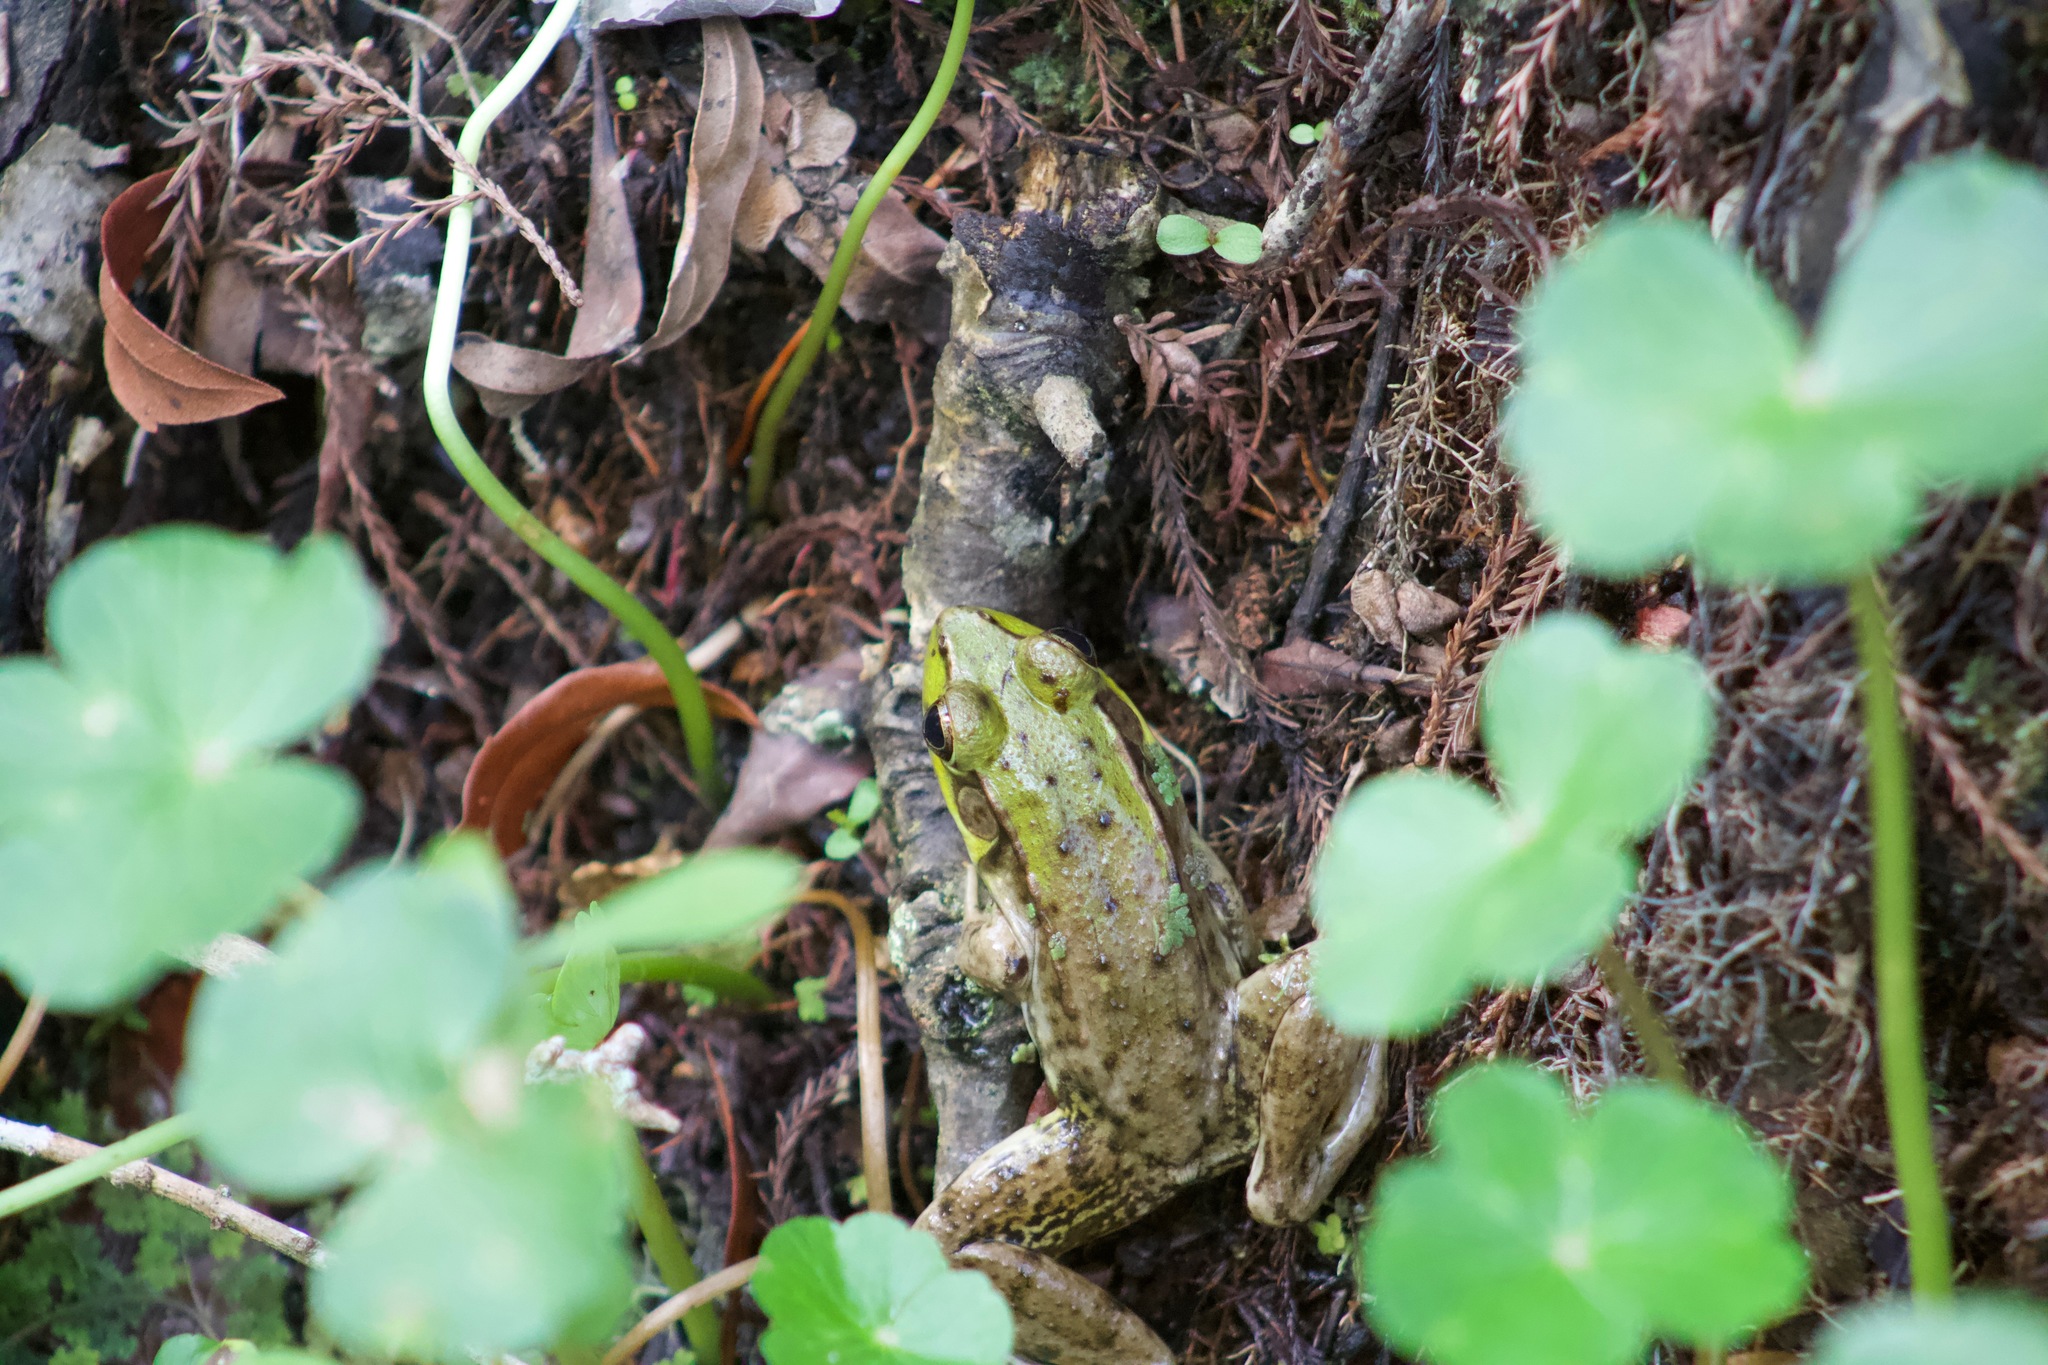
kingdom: Animalia
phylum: Chordata
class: Amphibia
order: Anura
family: Ranidae
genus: Lithobates
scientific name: Lithobates clamitans
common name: Green frog
